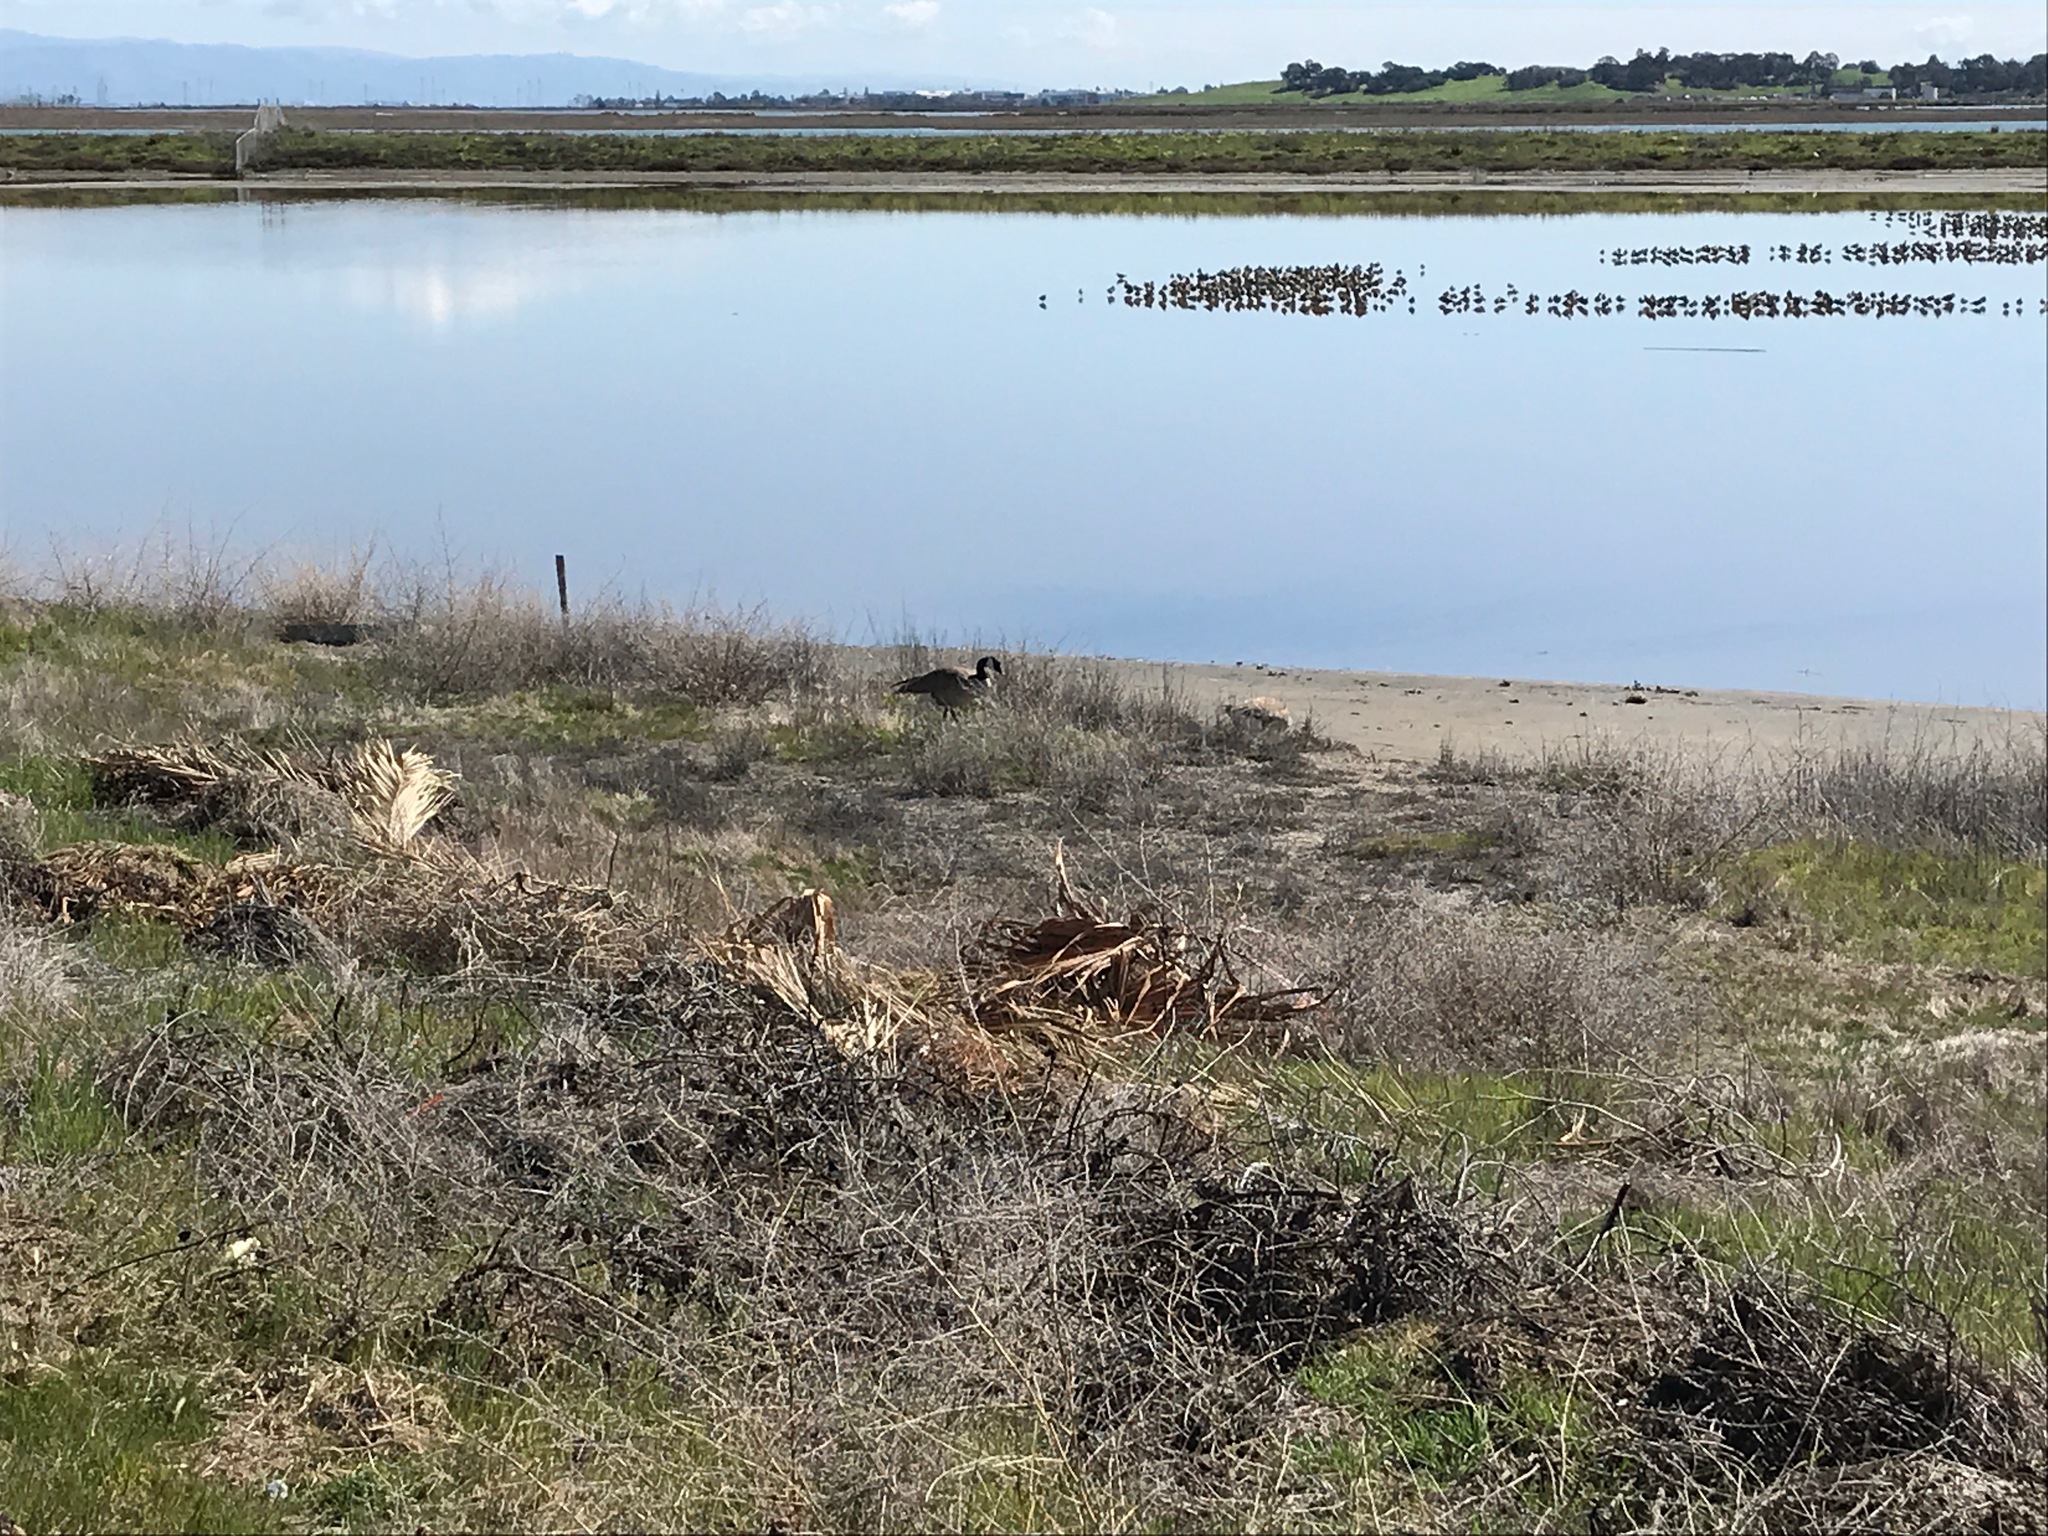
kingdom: Animalia
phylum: Chordata
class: Aves
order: Anseriformes
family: Anatidae
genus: Branta
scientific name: Branta canadensis
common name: Canada goose
